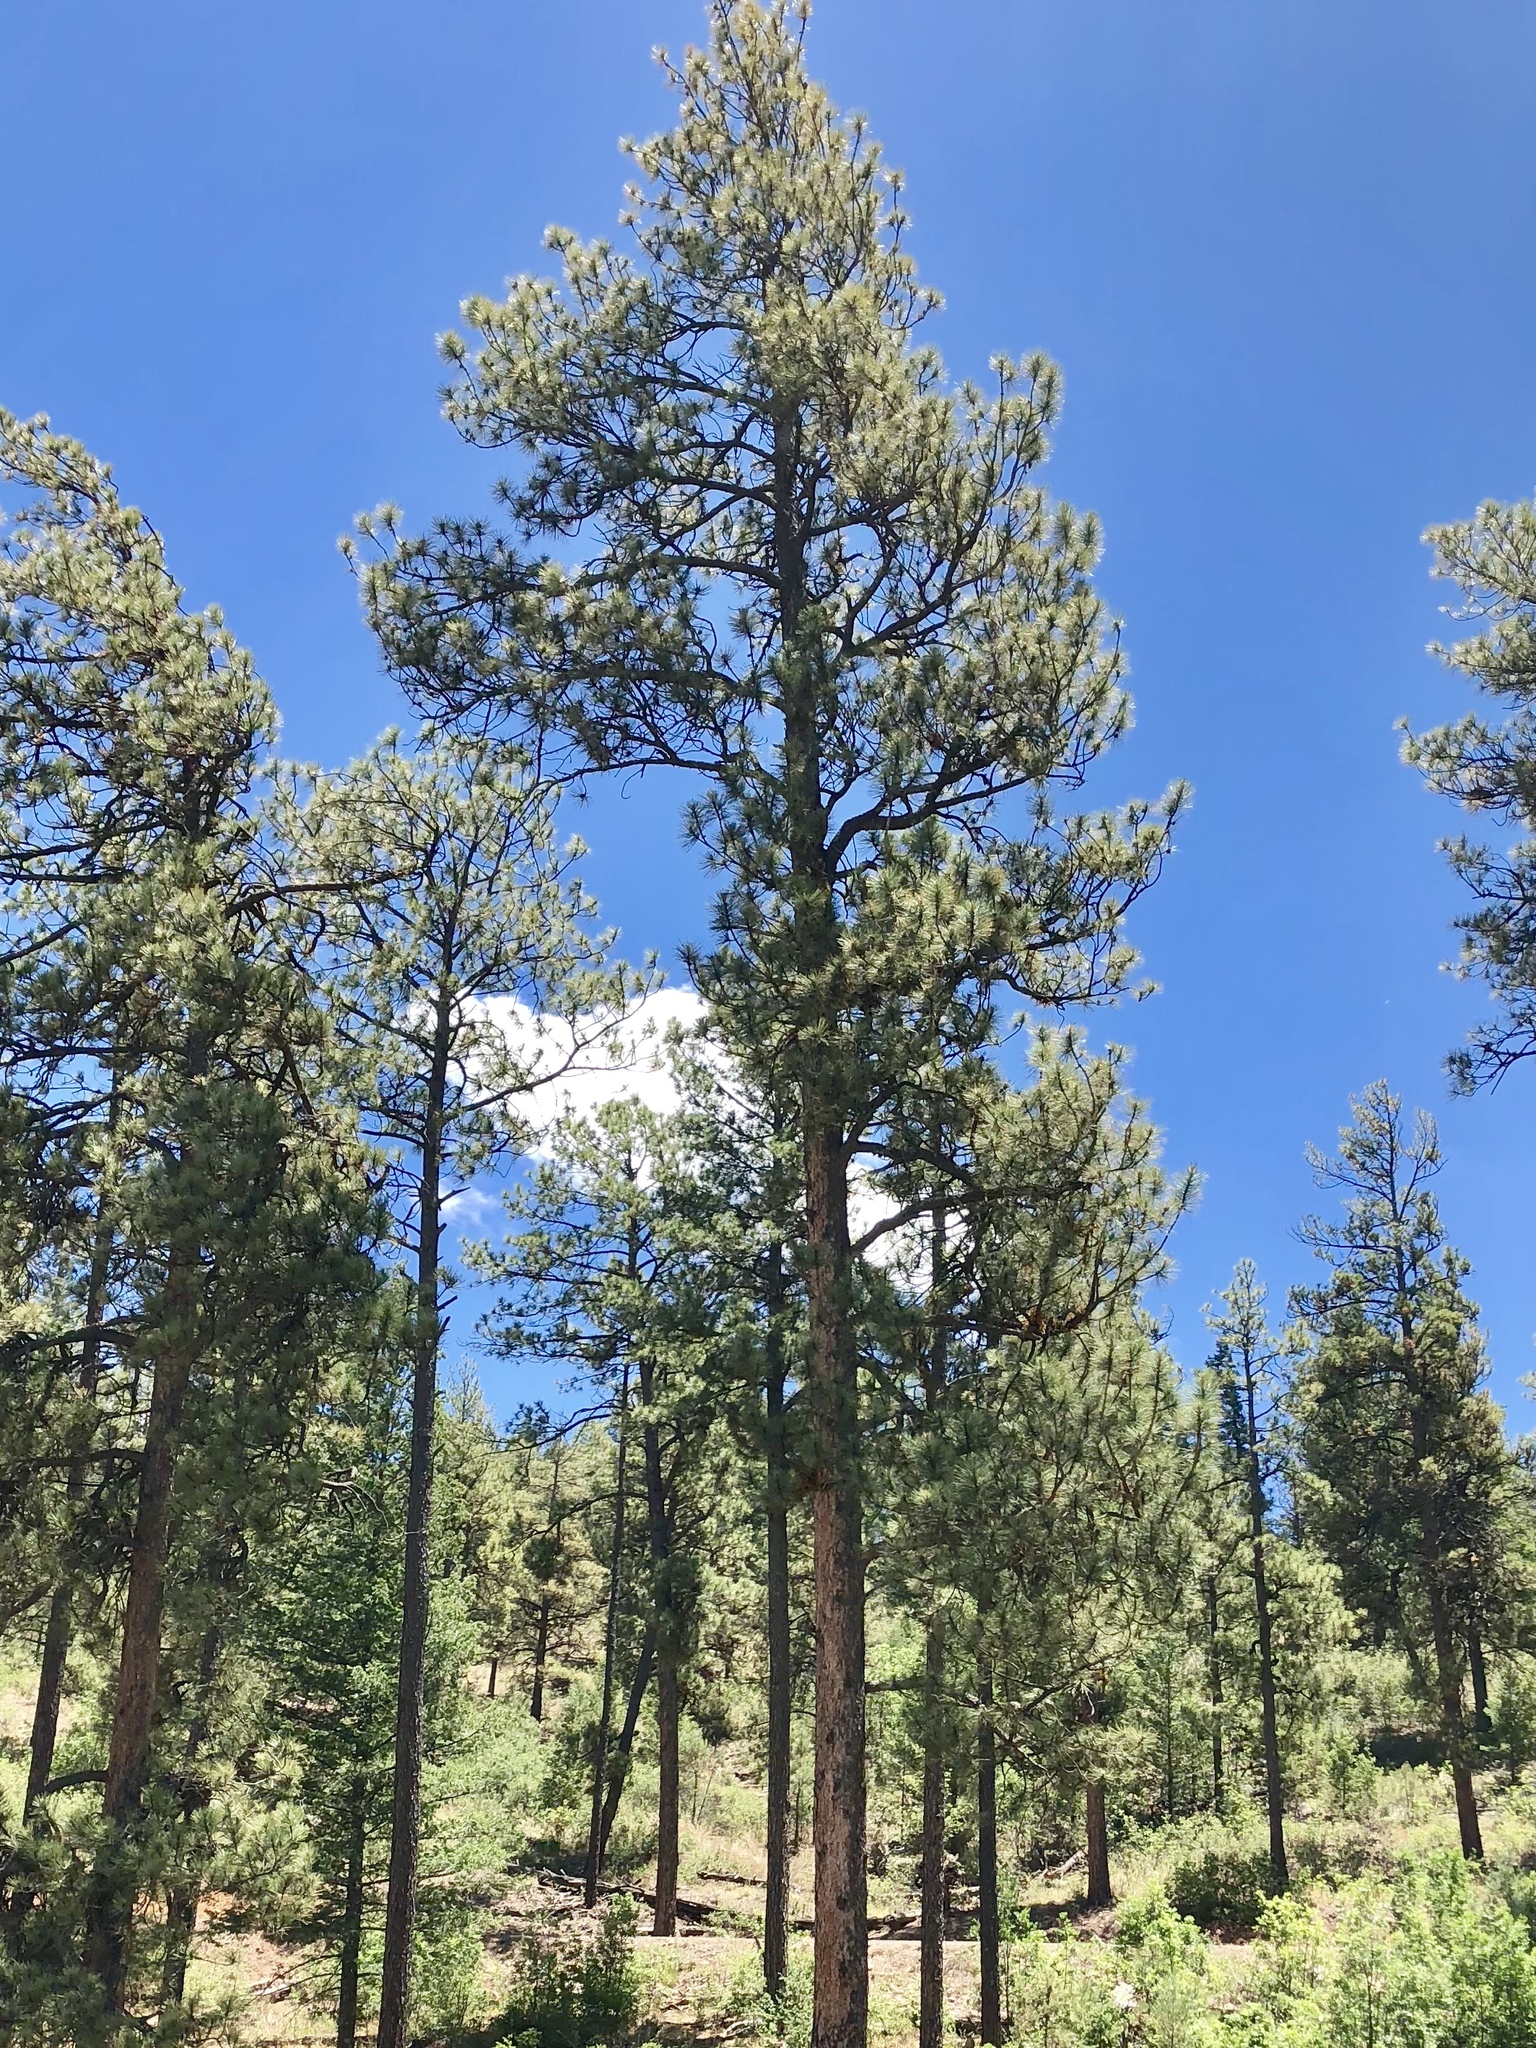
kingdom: Plantae
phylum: Tracheophyta
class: Pinopsida
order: Pinales
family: Pinaceae
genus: Pinus
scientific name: Pinus ponderosa
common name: Western yellow-pine
